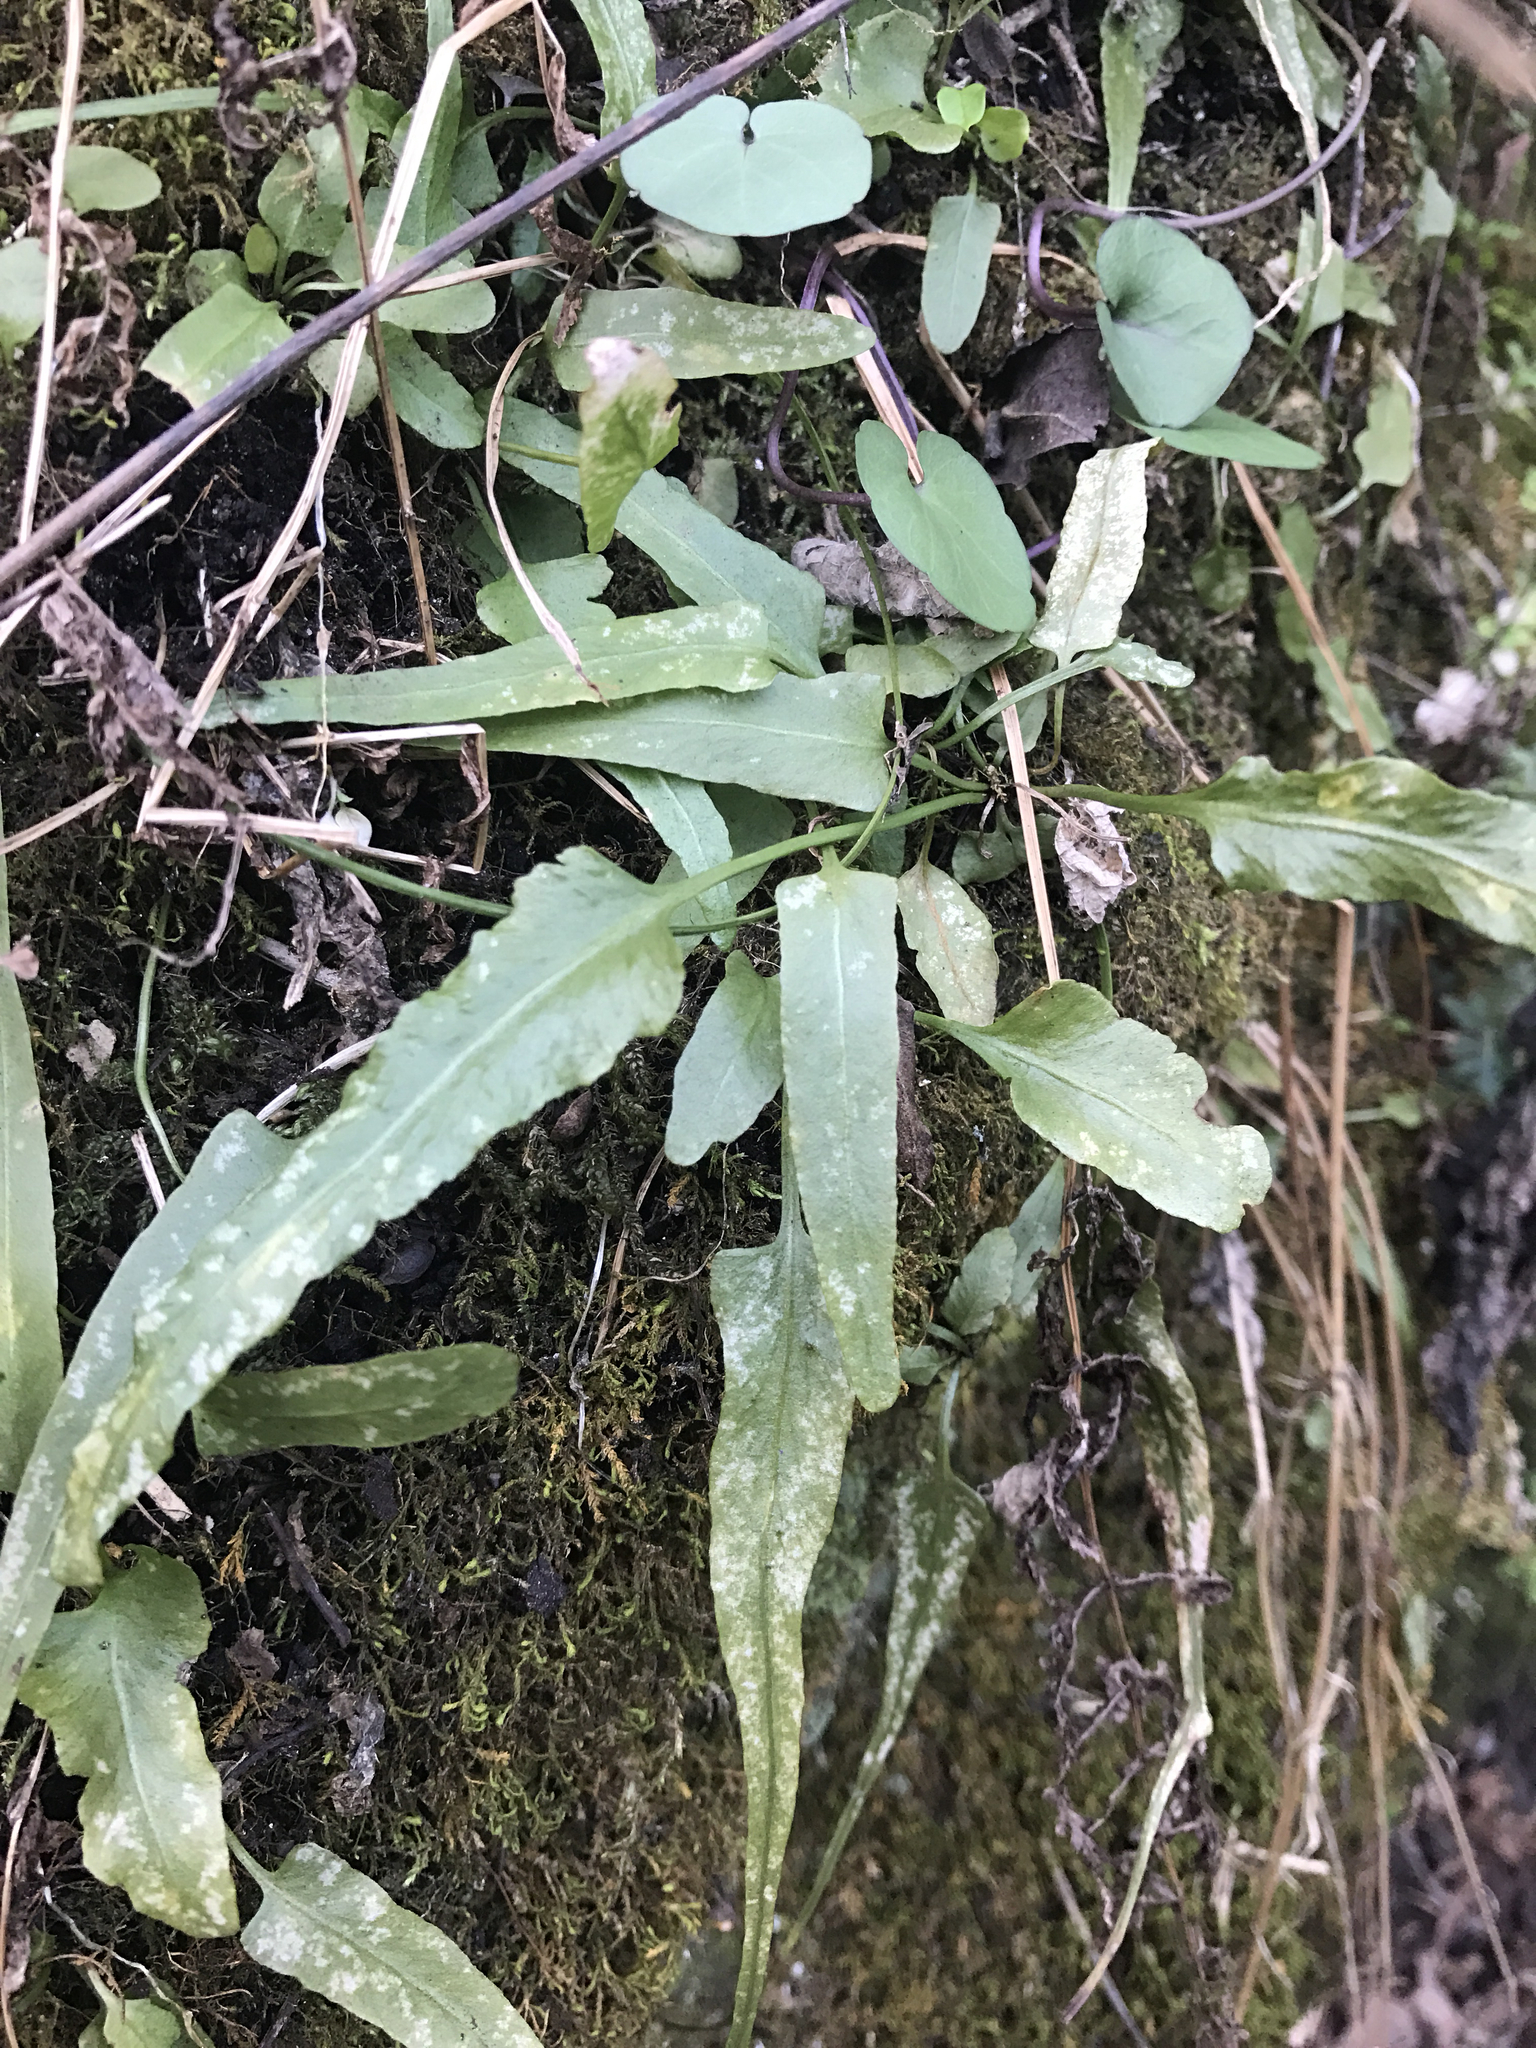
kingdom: Plantae
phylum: Tracheophyta
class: Polypodiopsida
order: Polypodiales
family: Aspleniaceae
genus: Asplenium
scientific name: Asplenium rhizophyllum
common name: Walking fern
